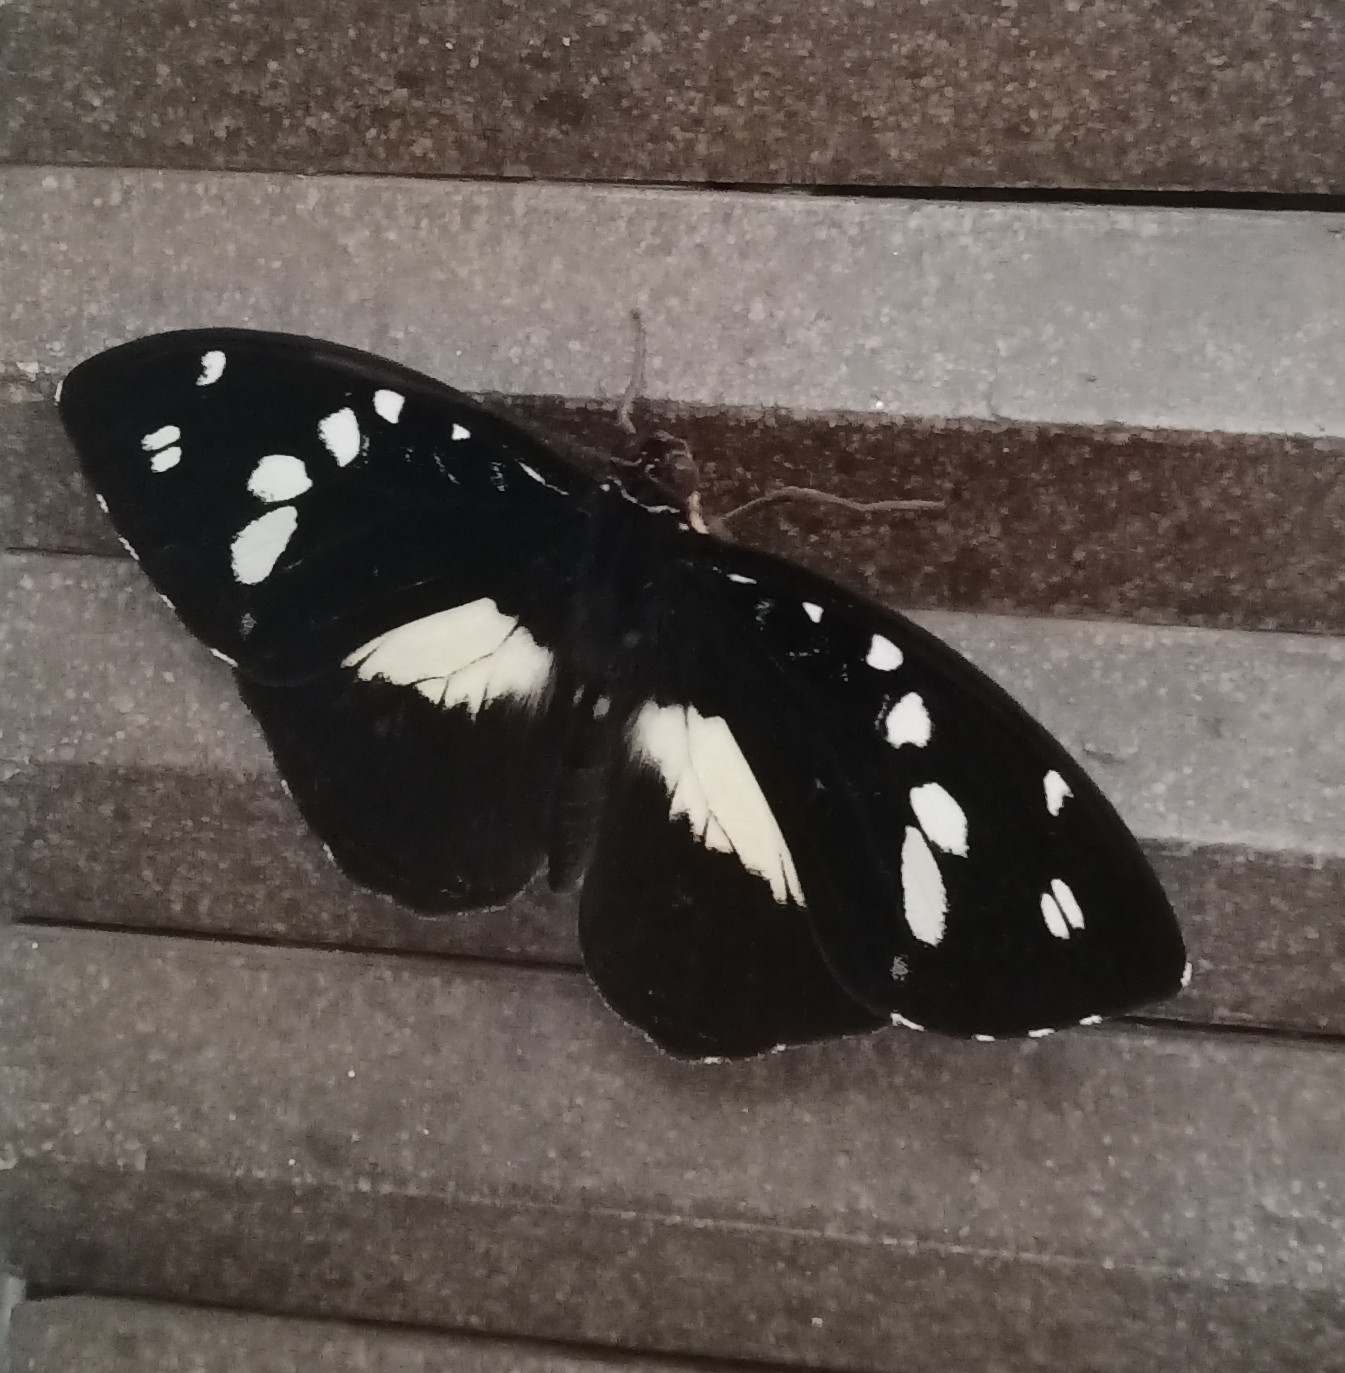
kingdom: Animalia
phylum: Arthropoda
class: Insecta
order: Lepidoptera
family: Nymphalidae
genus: Aterica
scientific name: Aterica galene
